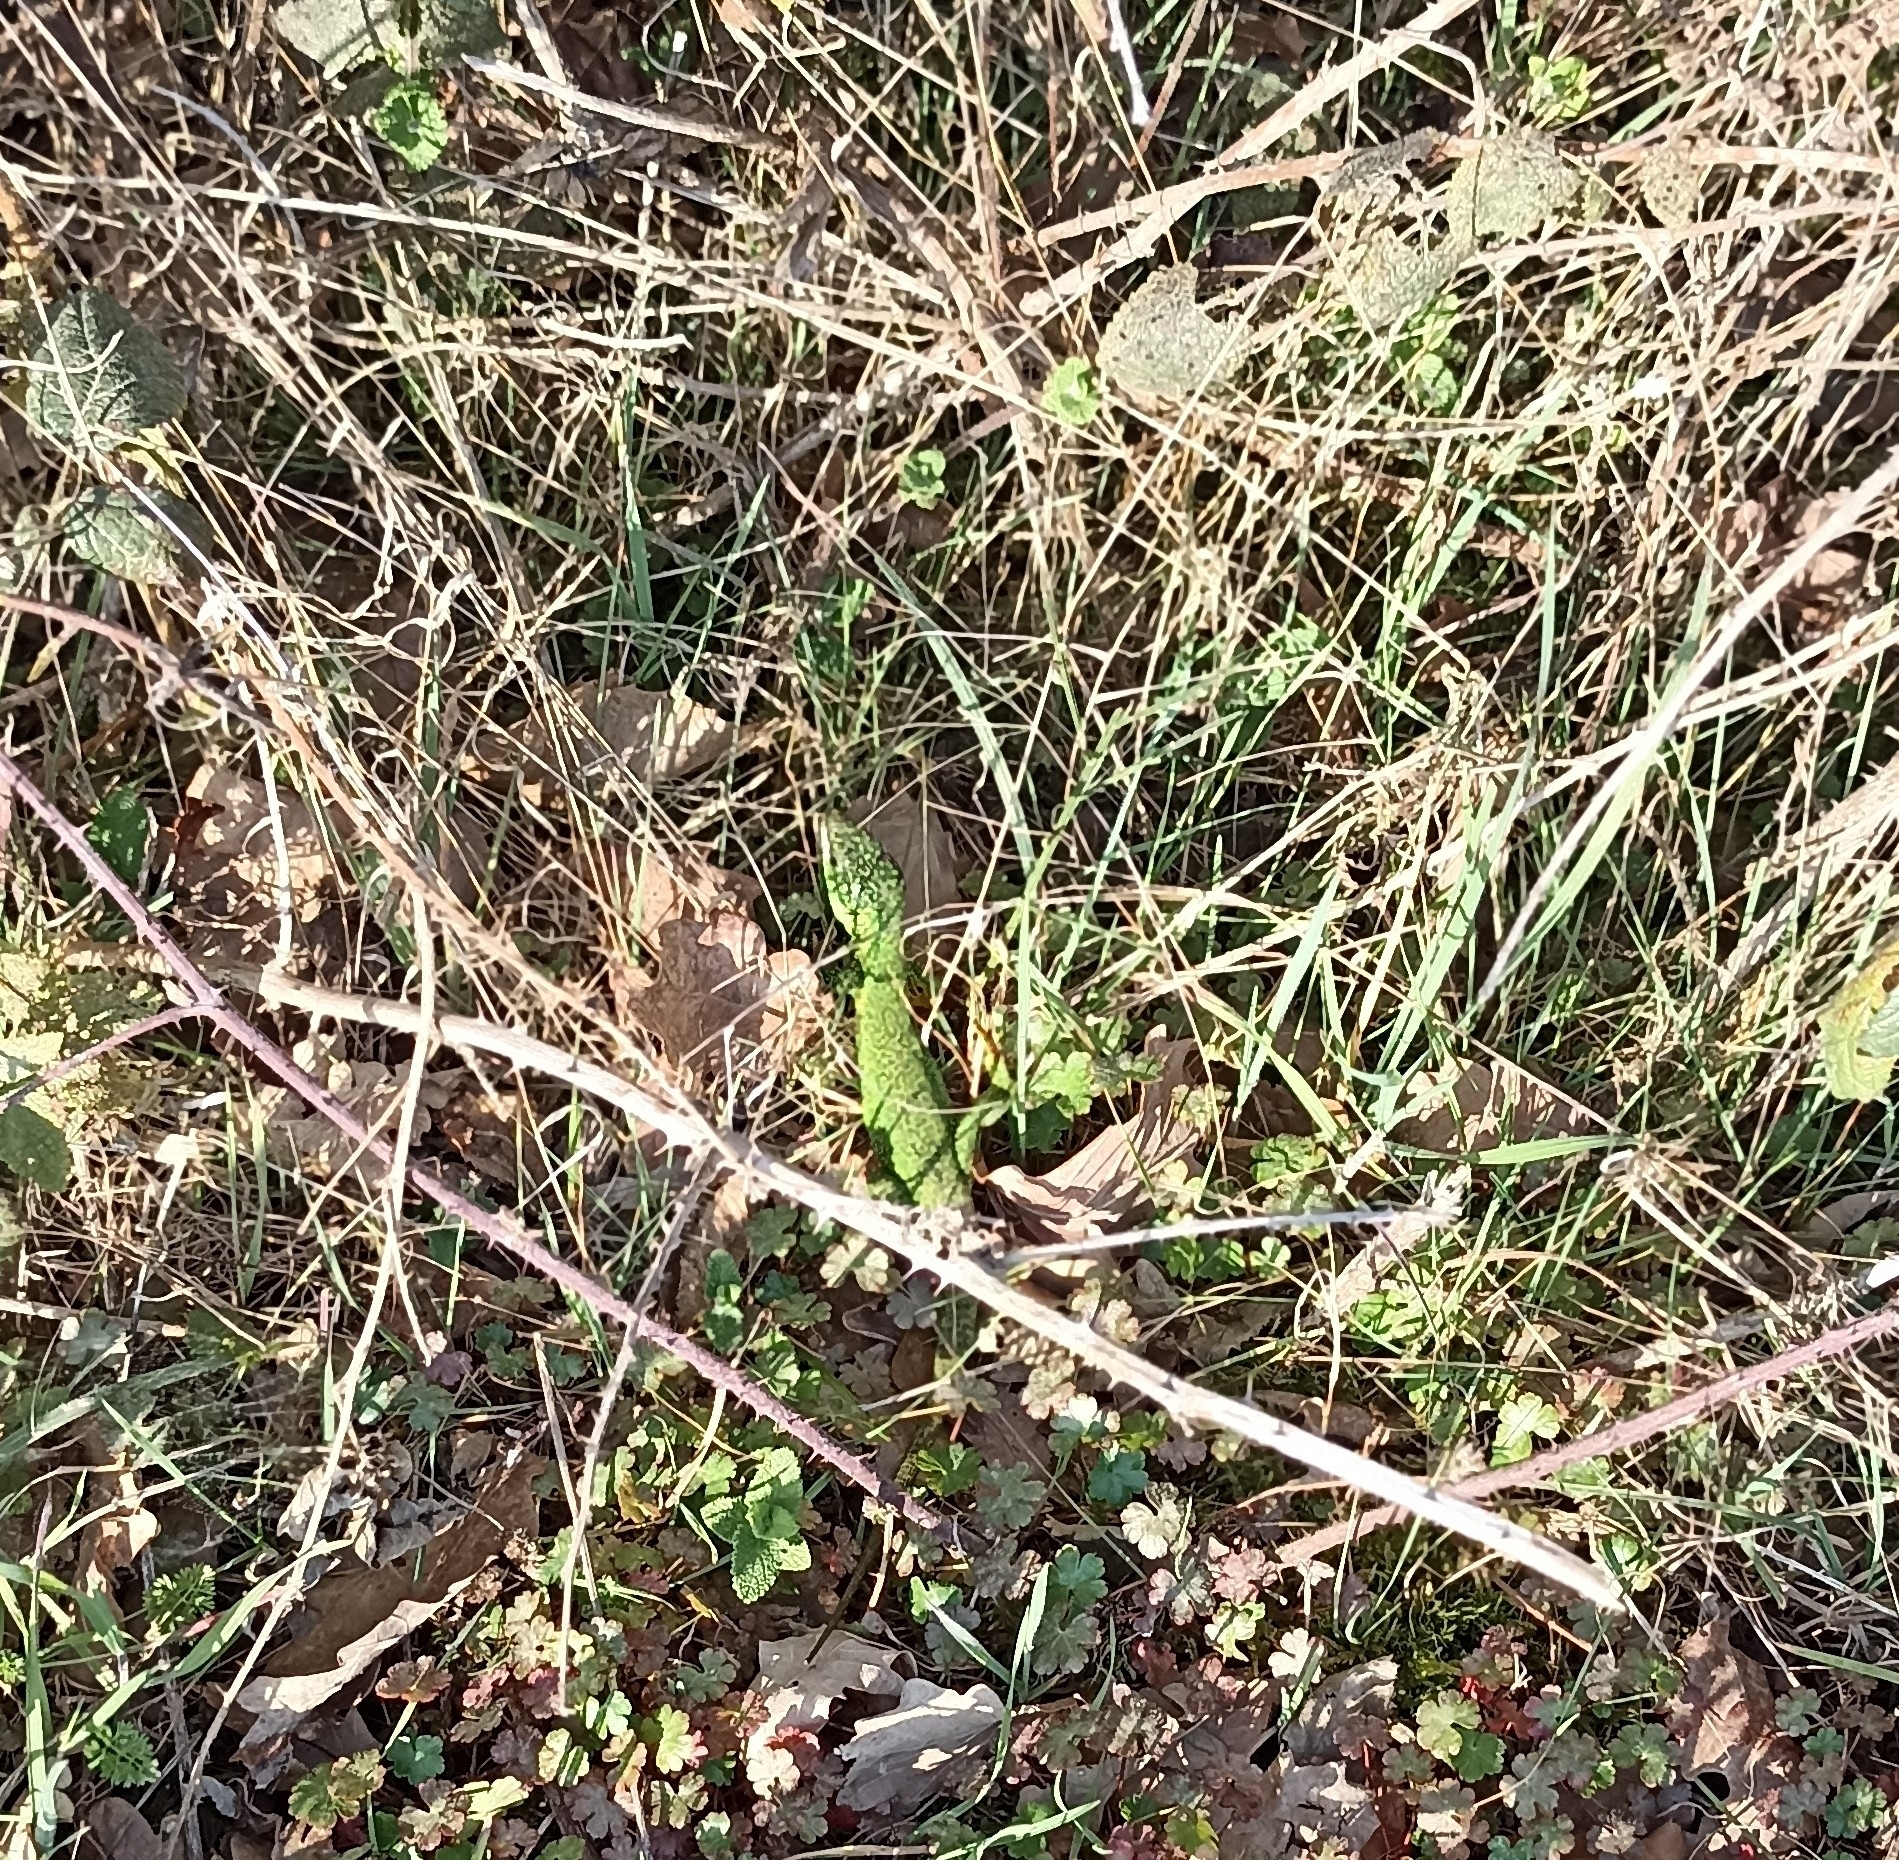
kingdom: Animalia
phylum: Chordata
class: Squamata
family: Lacertidae
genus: Lacerta
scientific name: Lacerta bilineata
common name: Western green lizard
